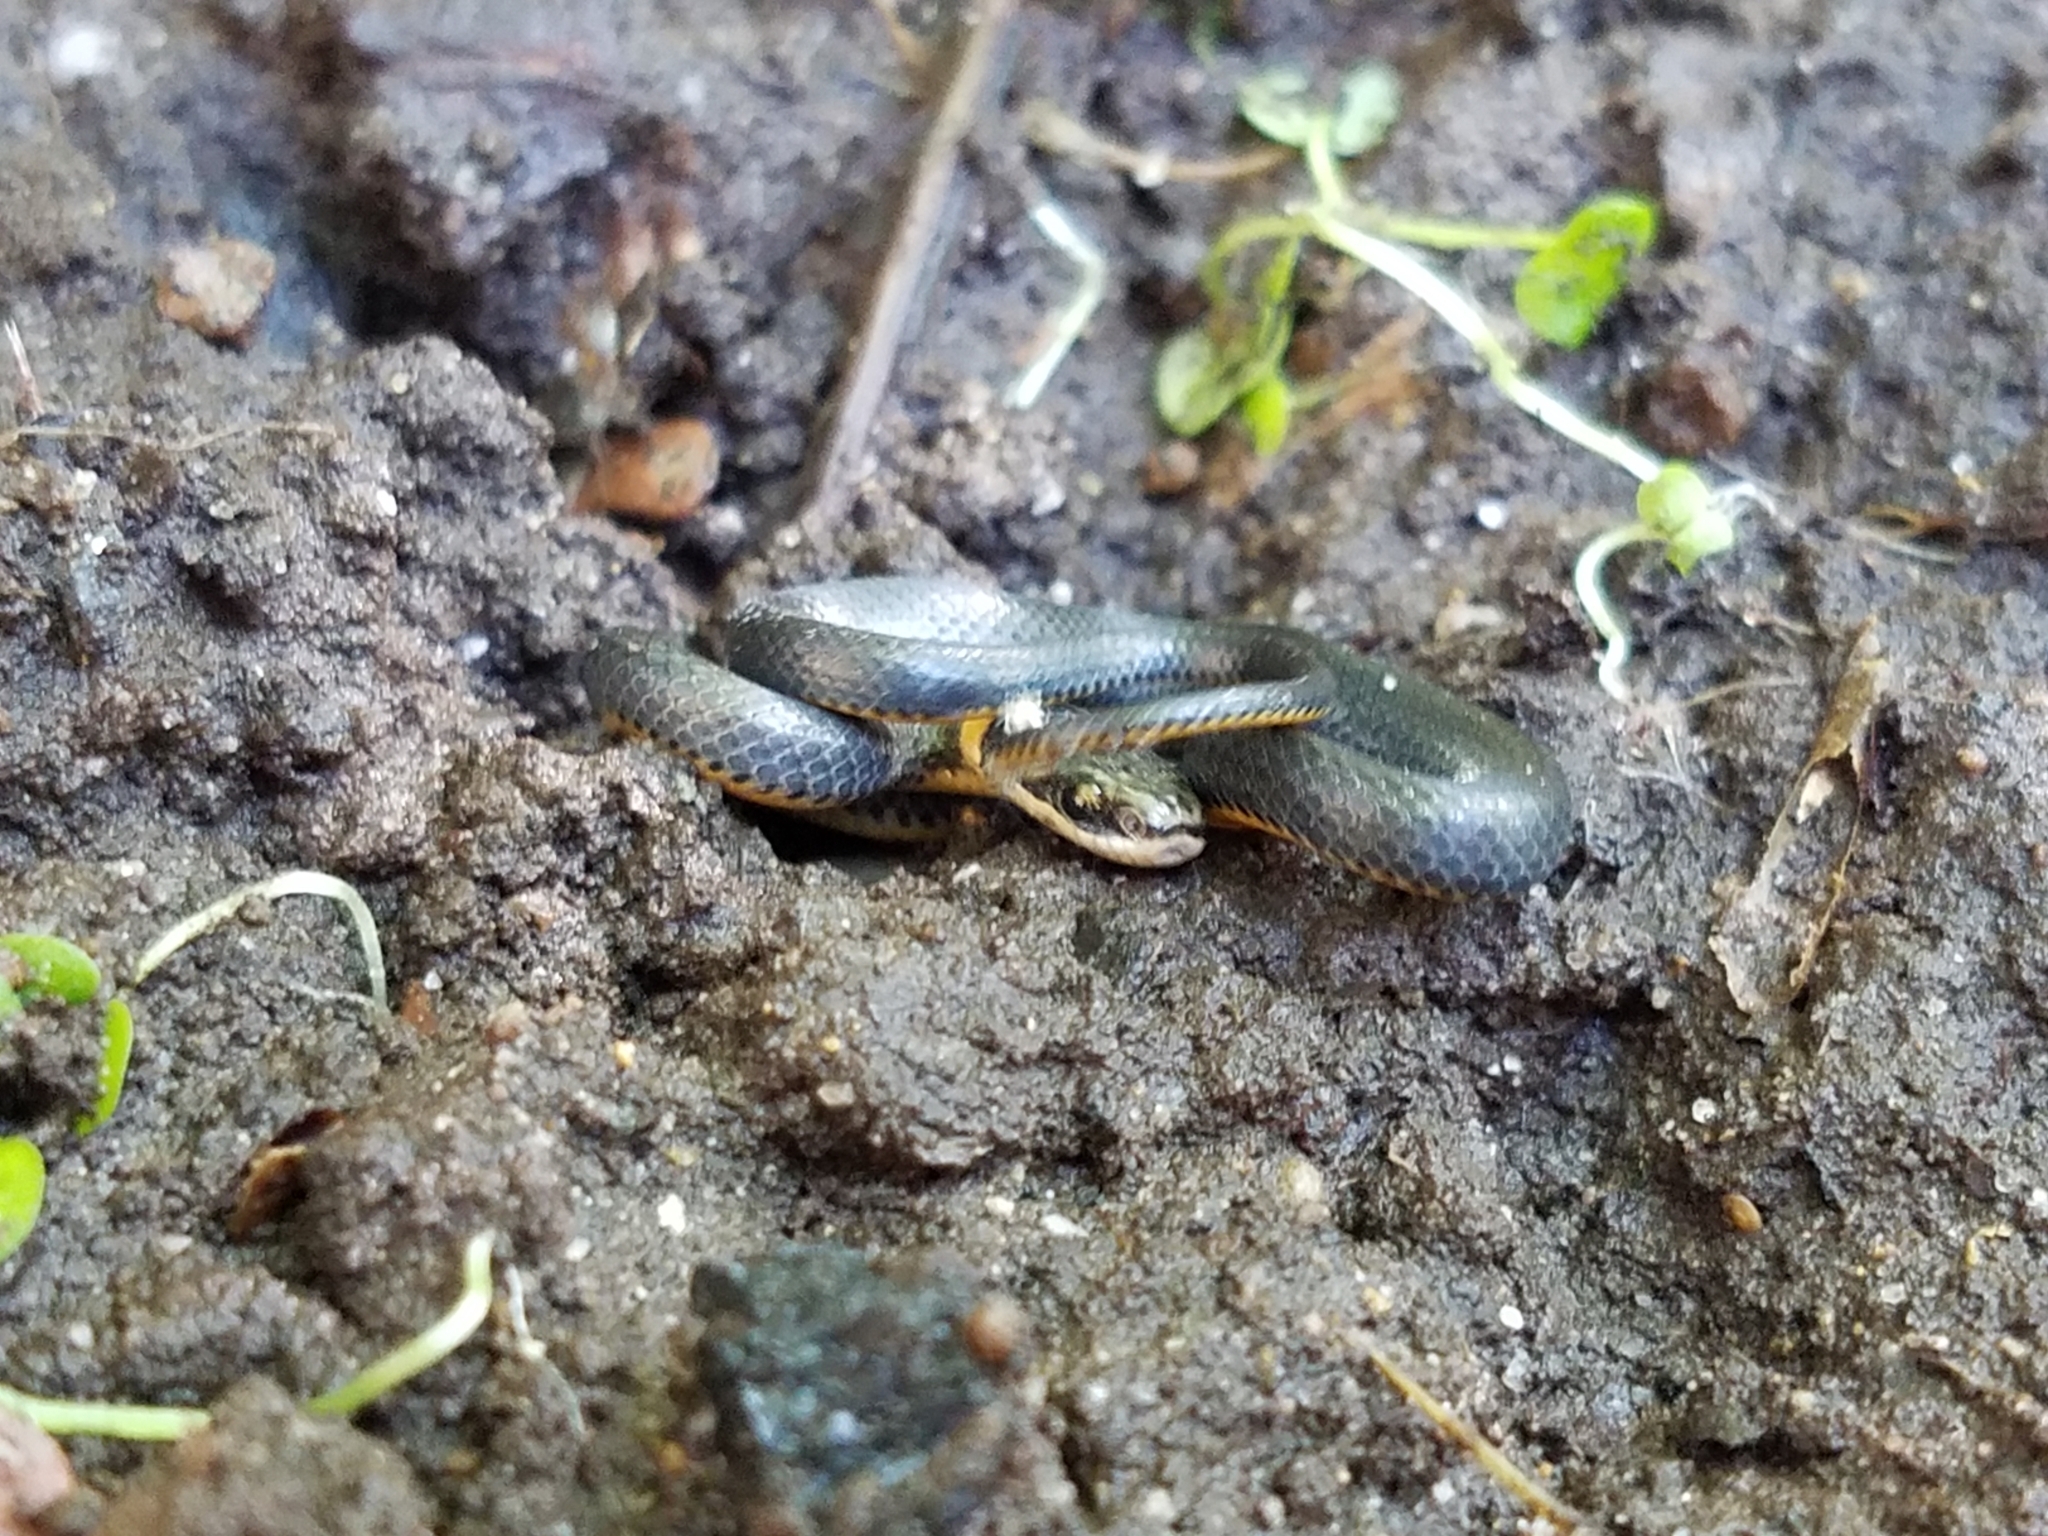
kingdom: Animalia
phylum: Chordata
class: Squamata
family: Colubridae
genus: Diadophis
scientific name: Diadophis punctatus
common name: Ringneck snake
